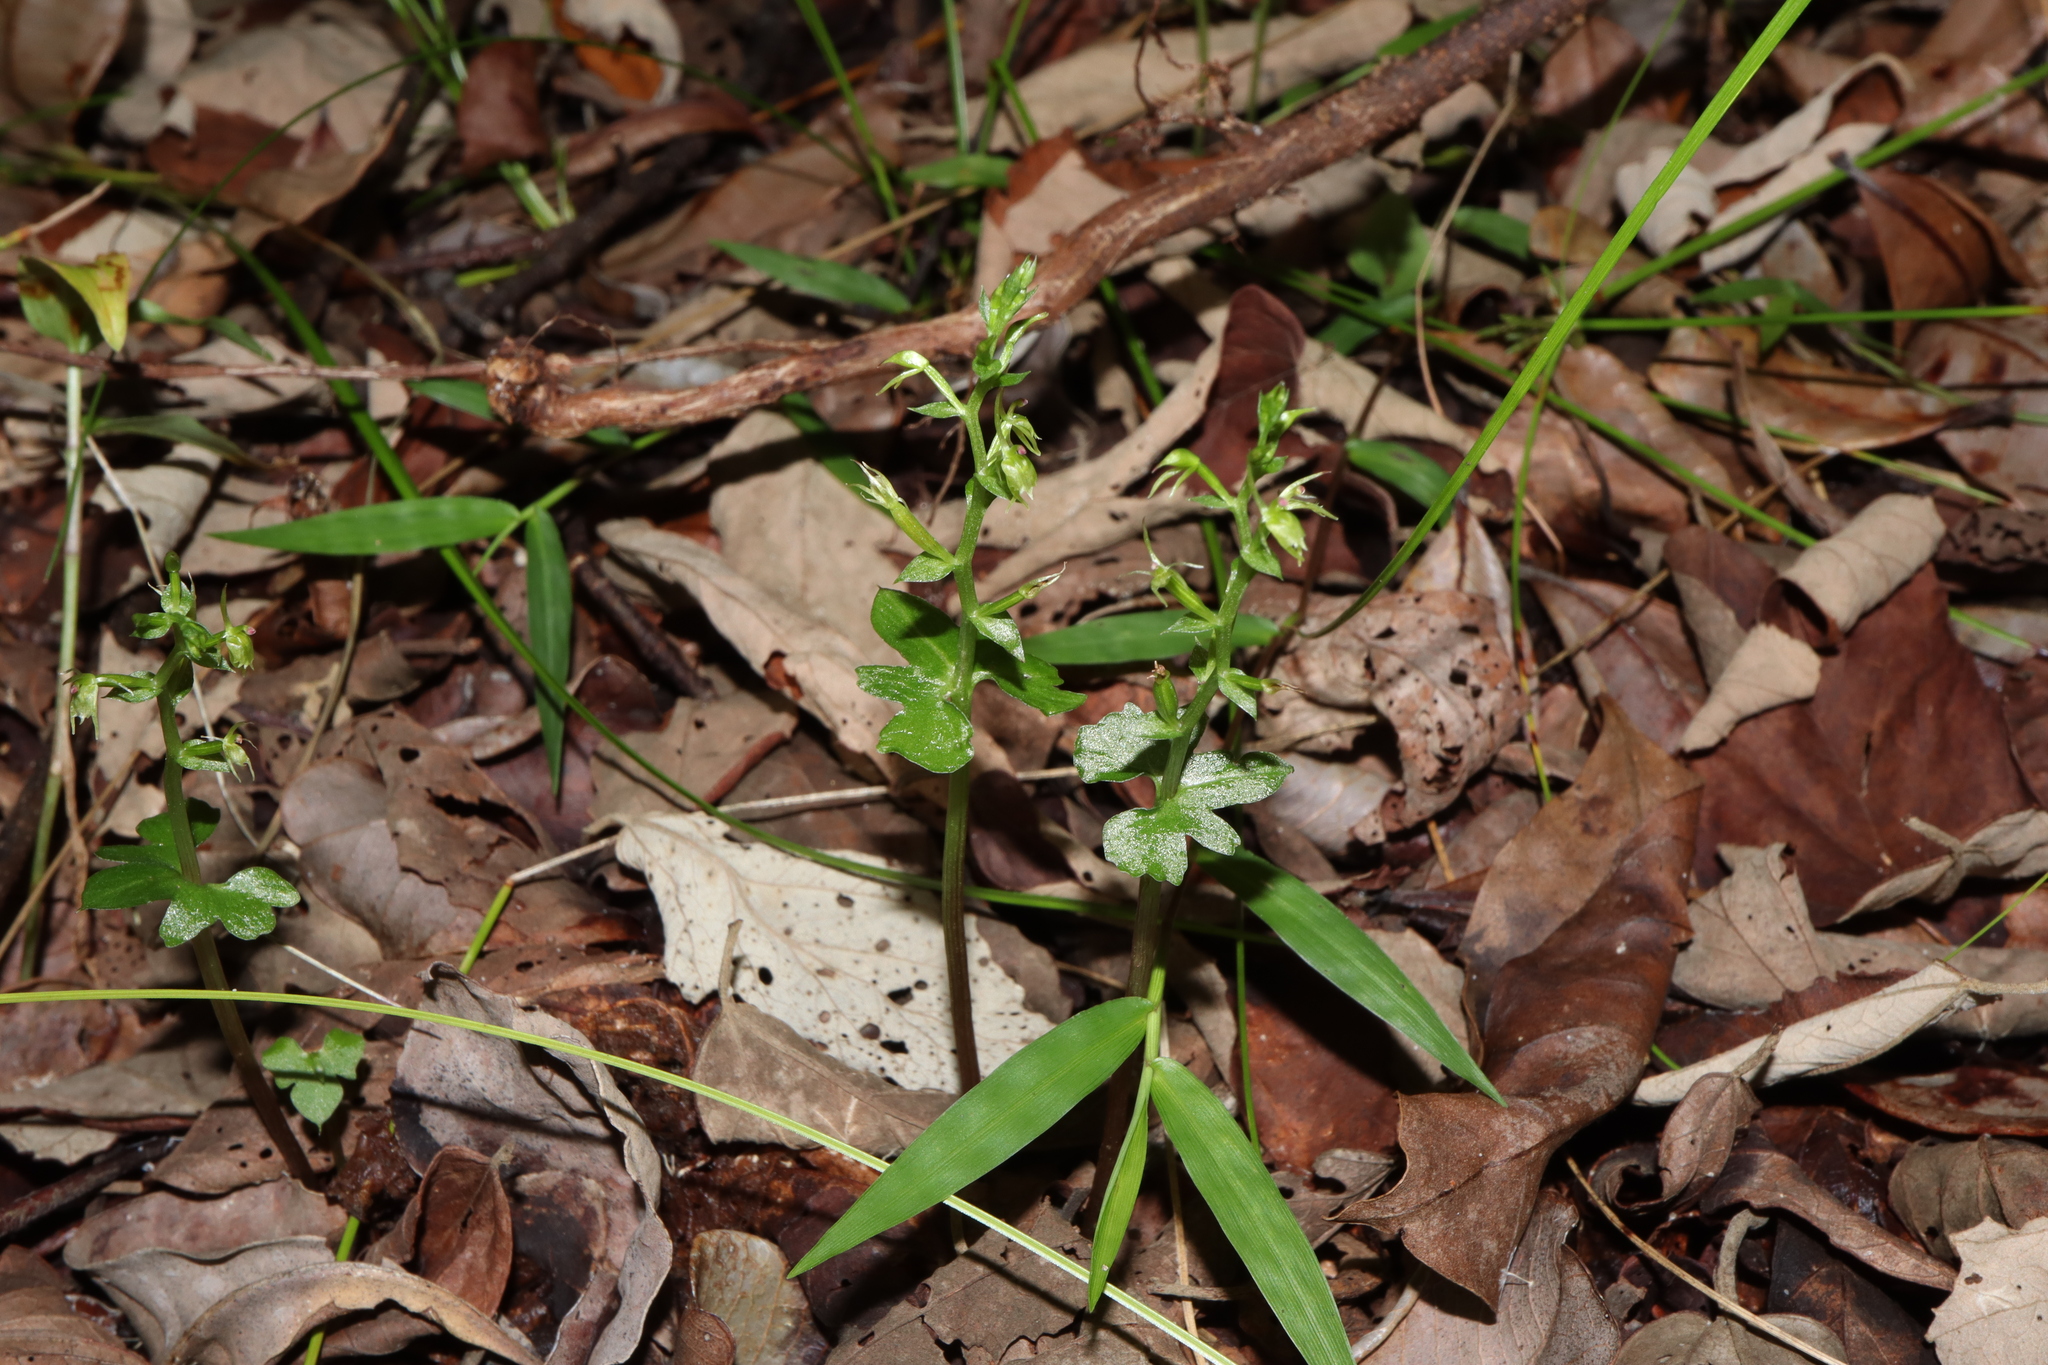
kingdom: Plantae
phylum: Tracheophyta
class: Liliopsida
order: Asparagales
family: Orchidaceae
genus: Acianthus
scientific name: Acianthus amplexicaulis
